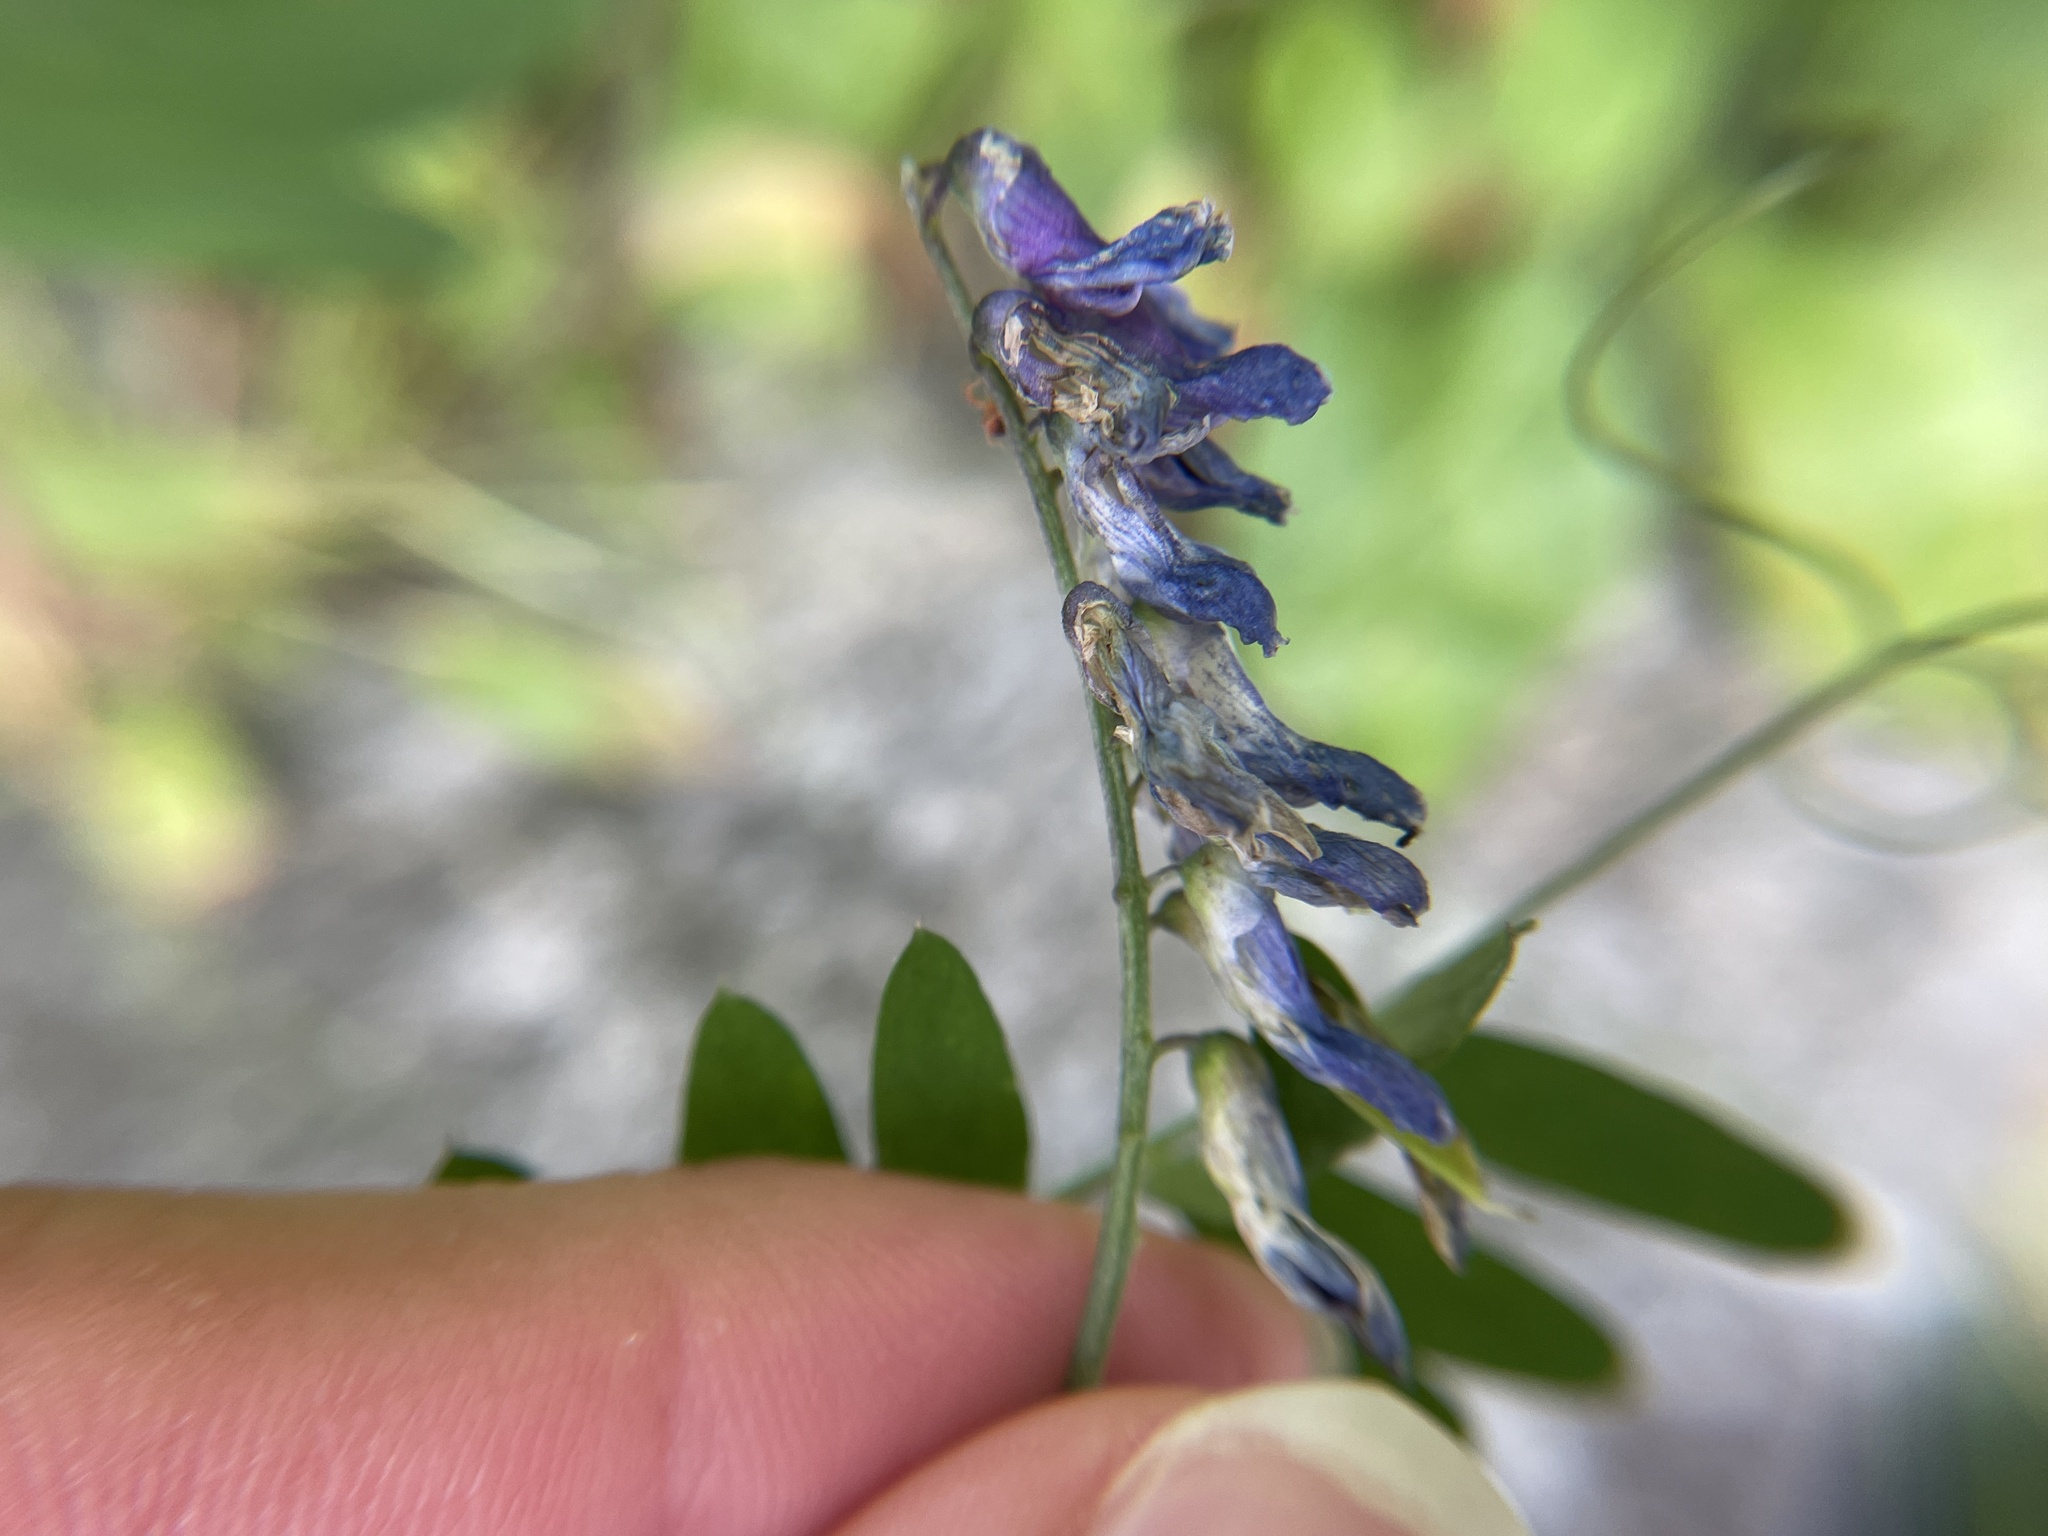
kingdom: Plantae
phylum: Tracheophyta
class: Magnoliopsida
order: Fabales
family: Fabaceae
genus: Vicia
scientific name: Vicia cracca
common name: Bird vetch
